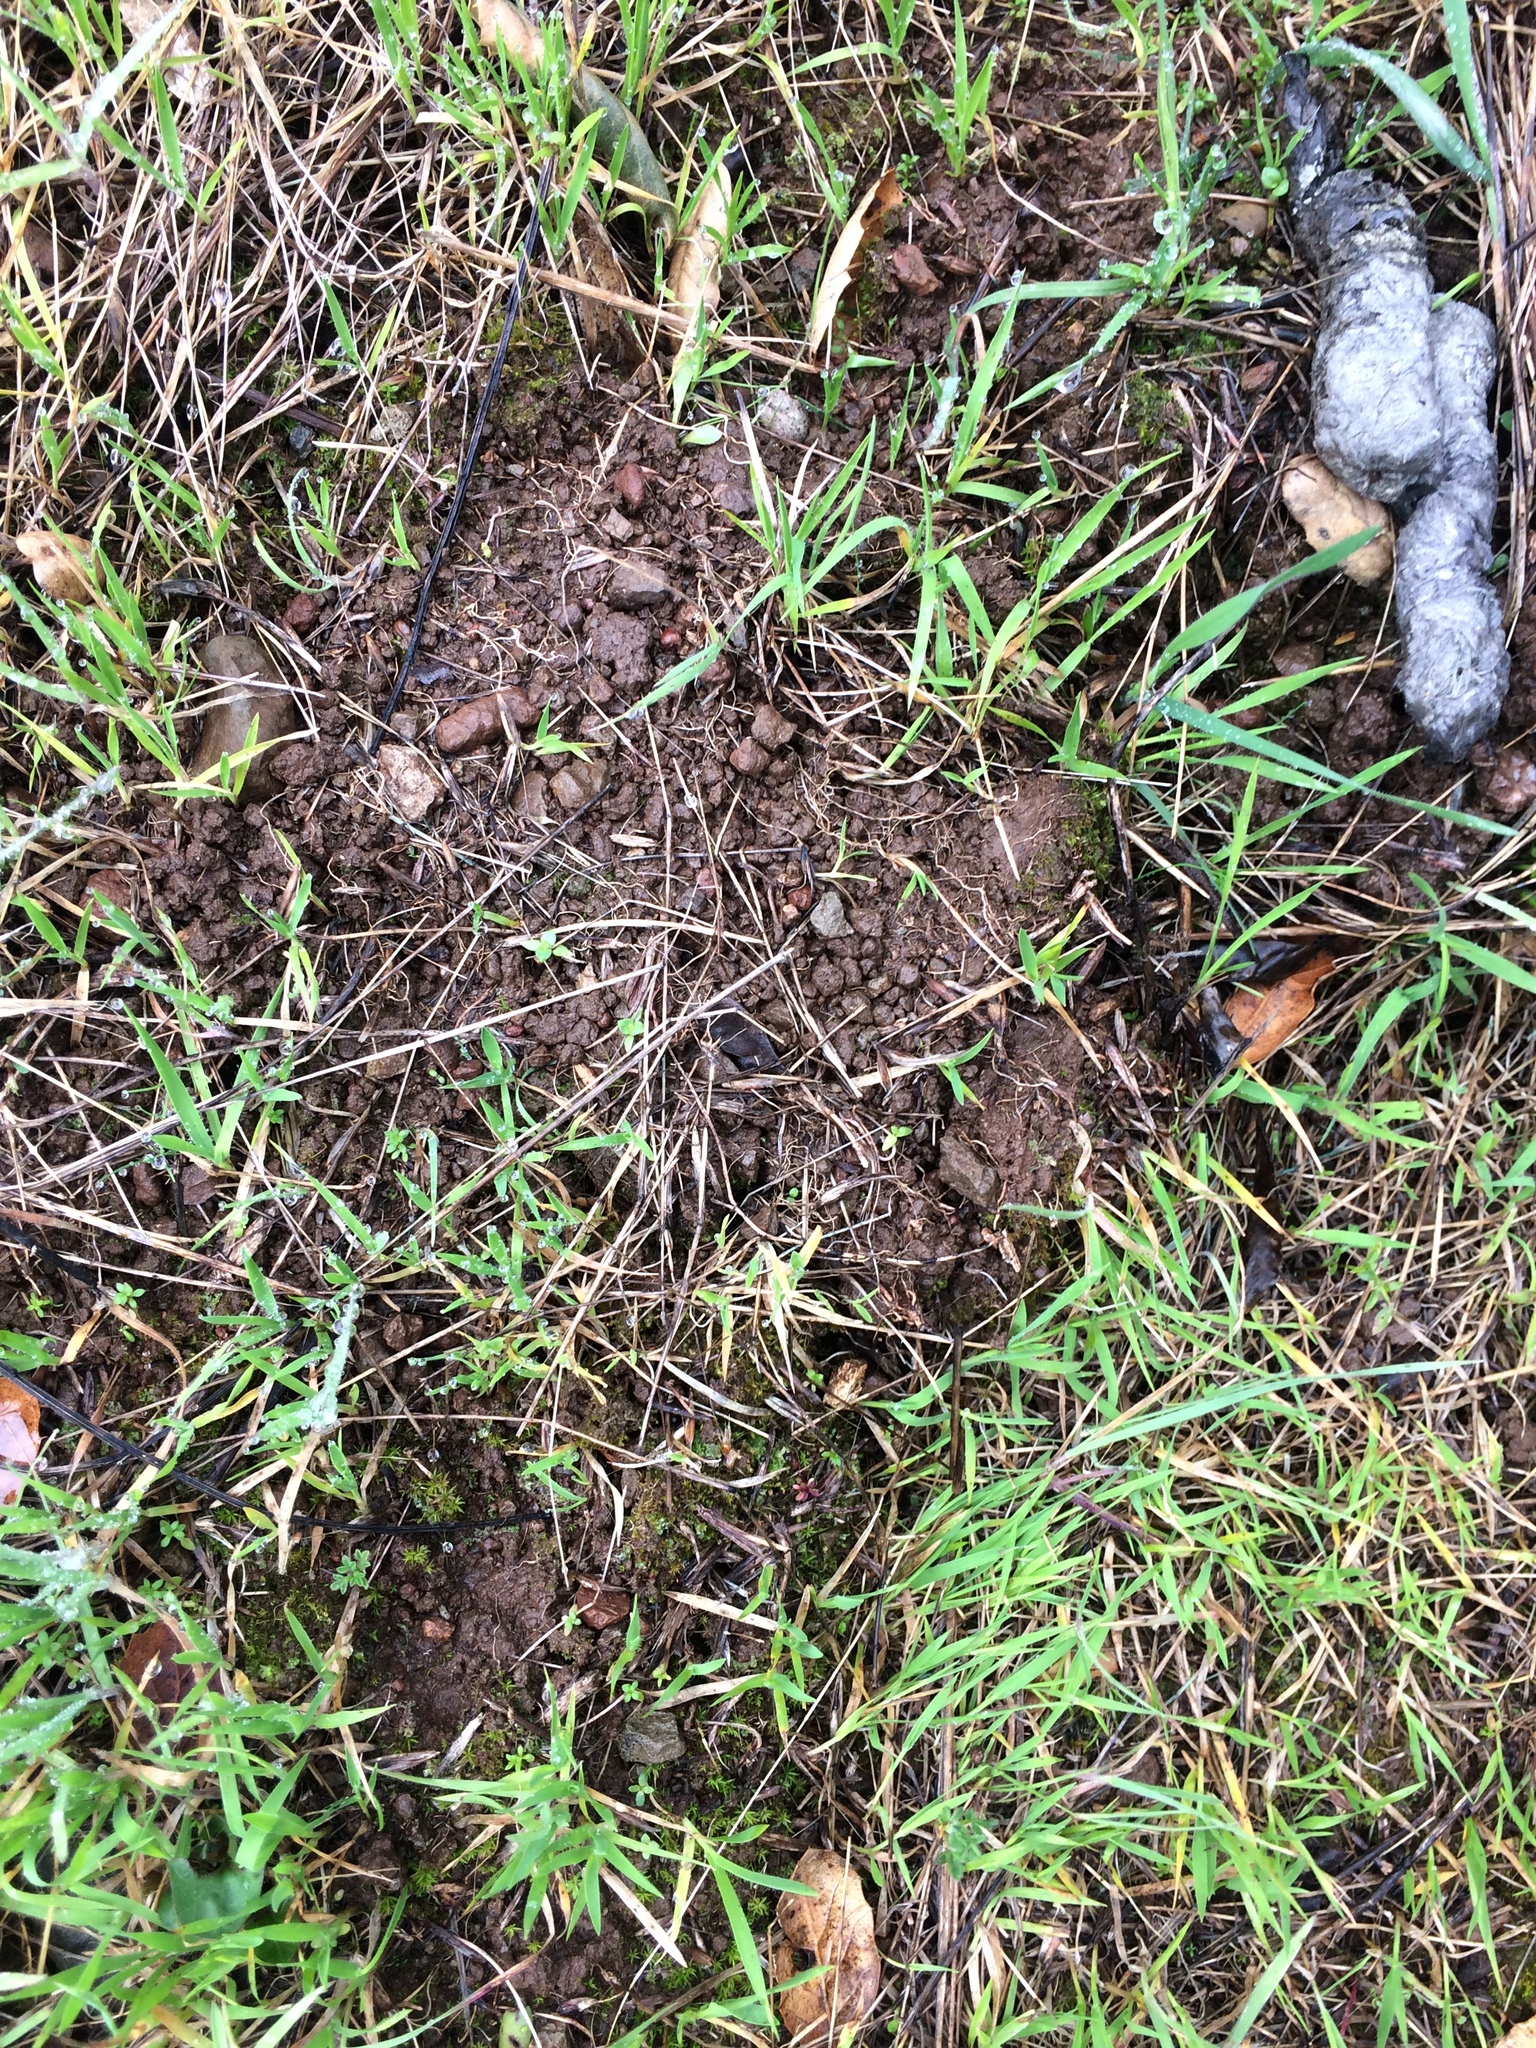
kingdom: Animalia
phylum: Chordata
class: Mammalia
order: Carnivora
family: Felidae
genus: Lynx
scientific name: Lynx rufus
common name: Bobcat
